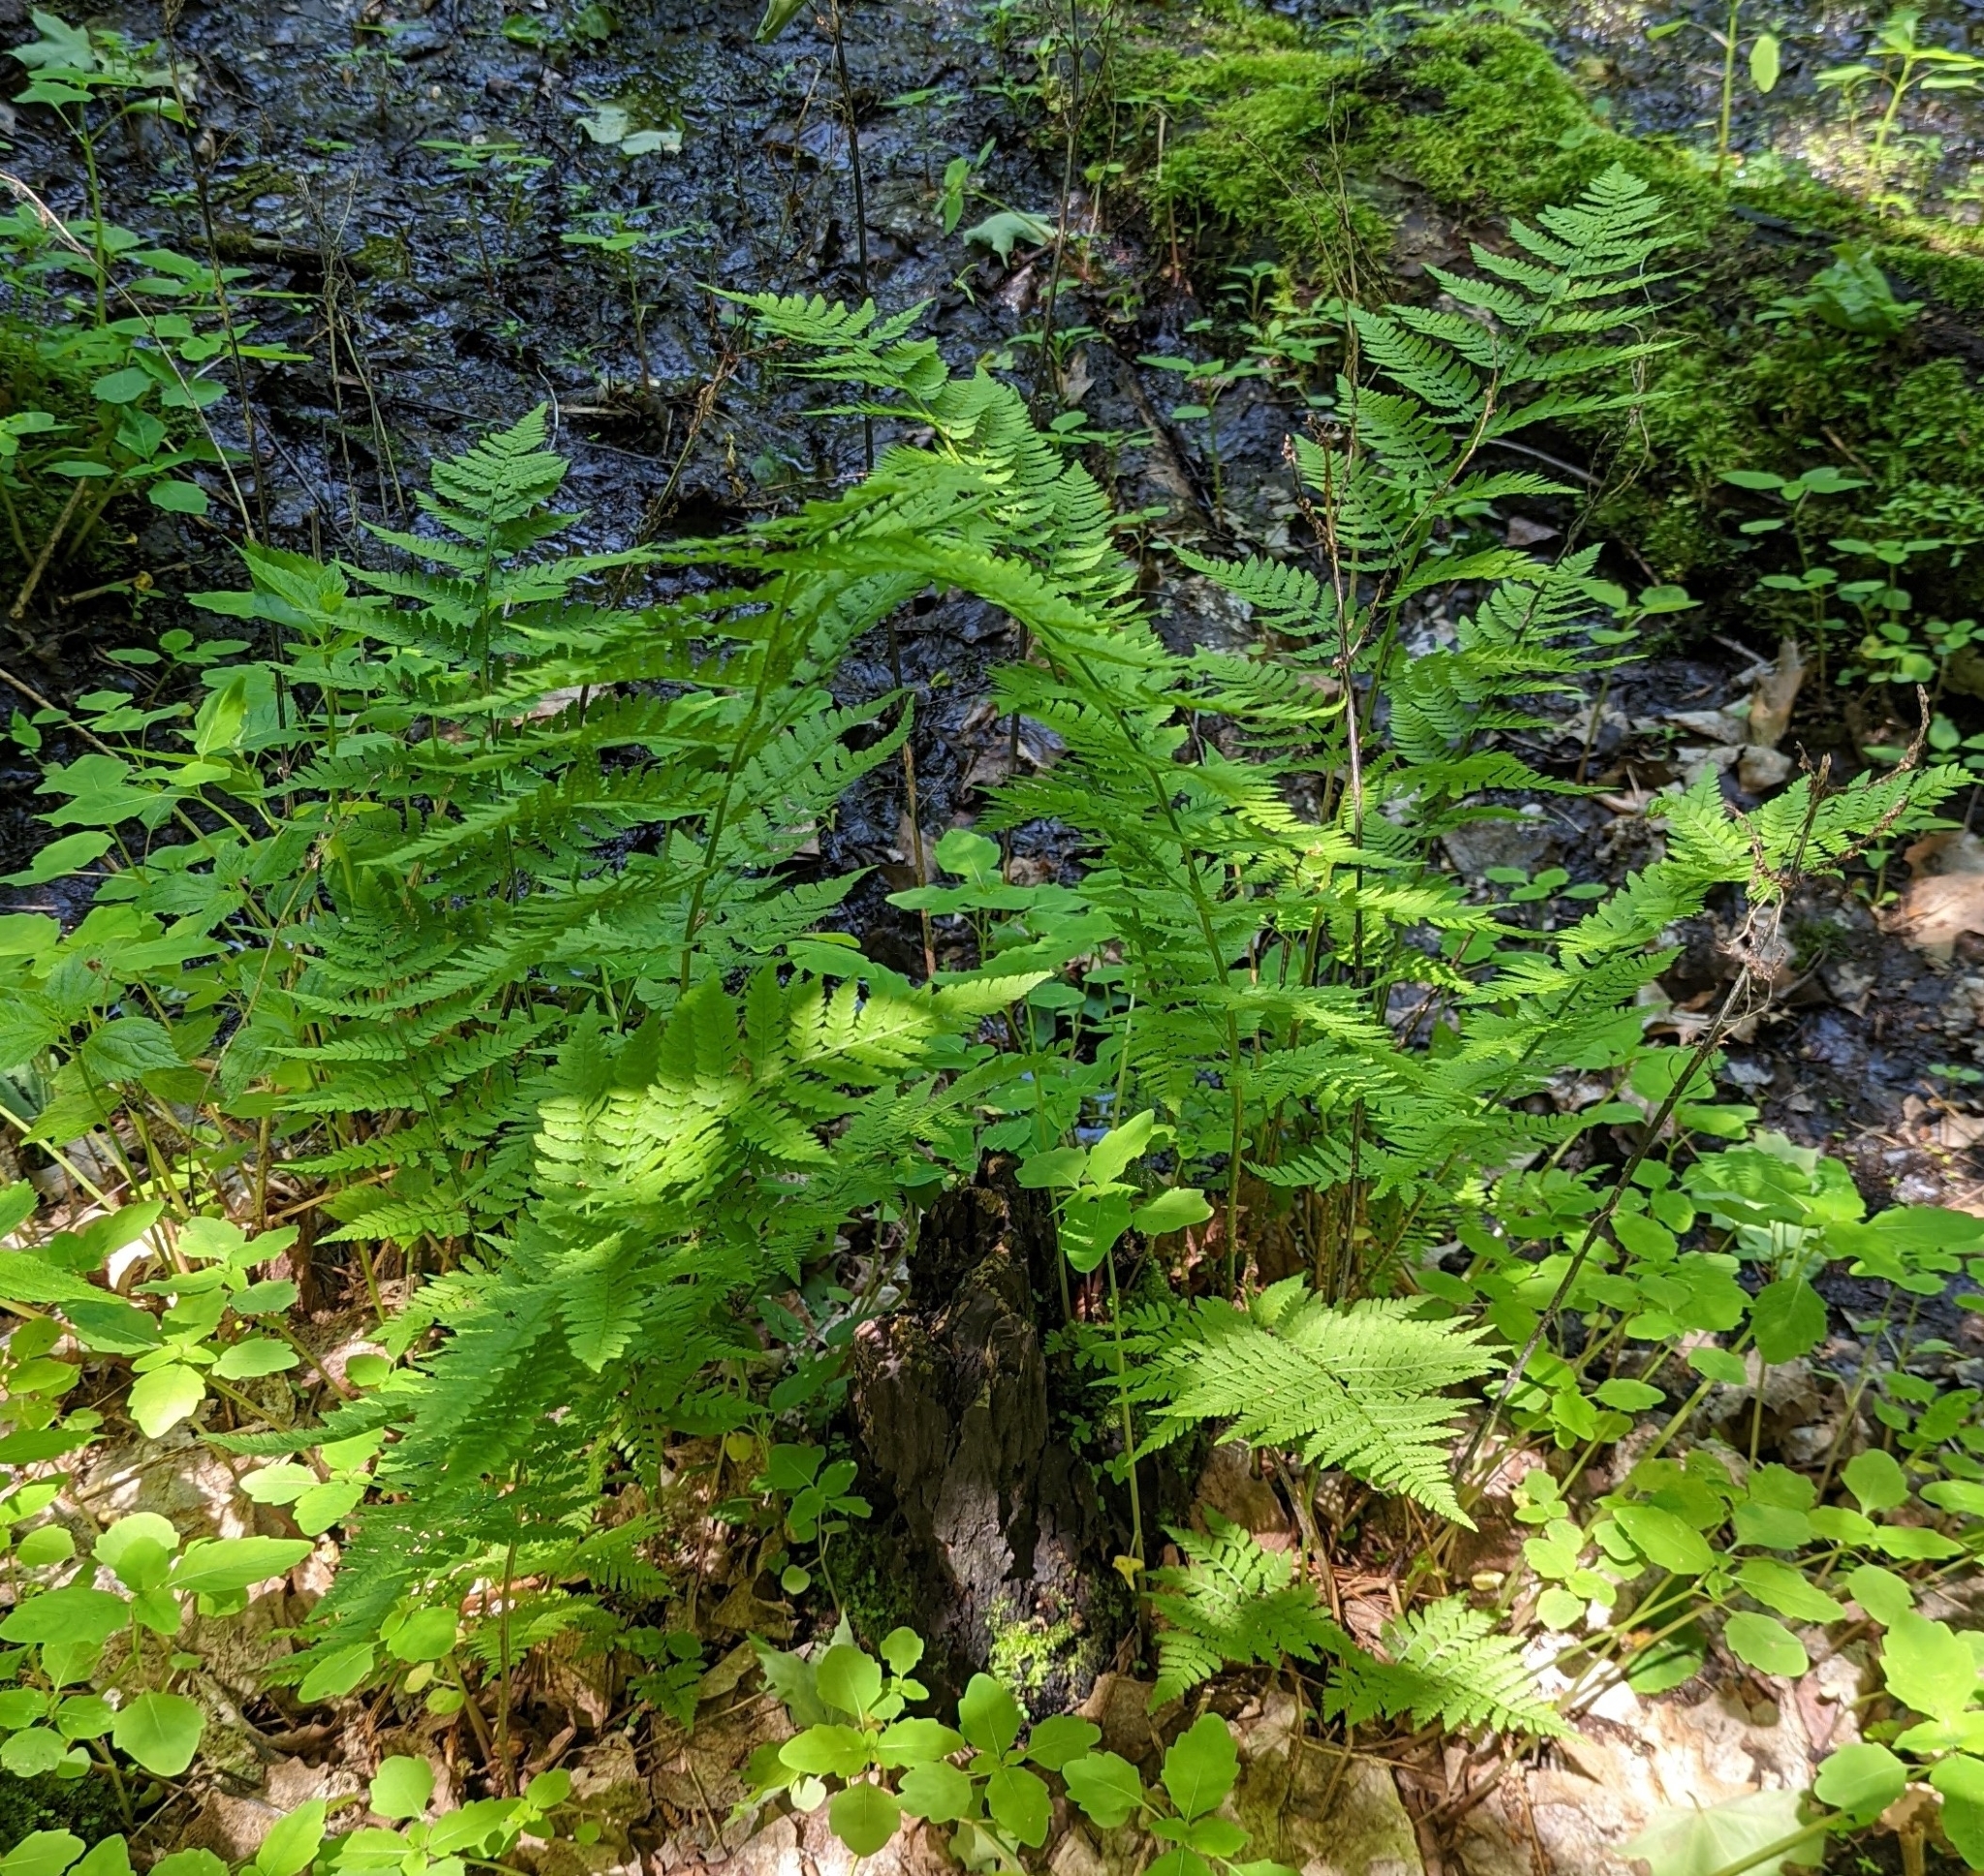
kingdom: Plantae
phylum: Tracheophyta
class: Polypodiopsida
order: Polypodiales
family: Dryopteridaceae
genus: Dryopteris
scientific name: Dryopteris carthusiana
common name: Narrow buckler-fern
